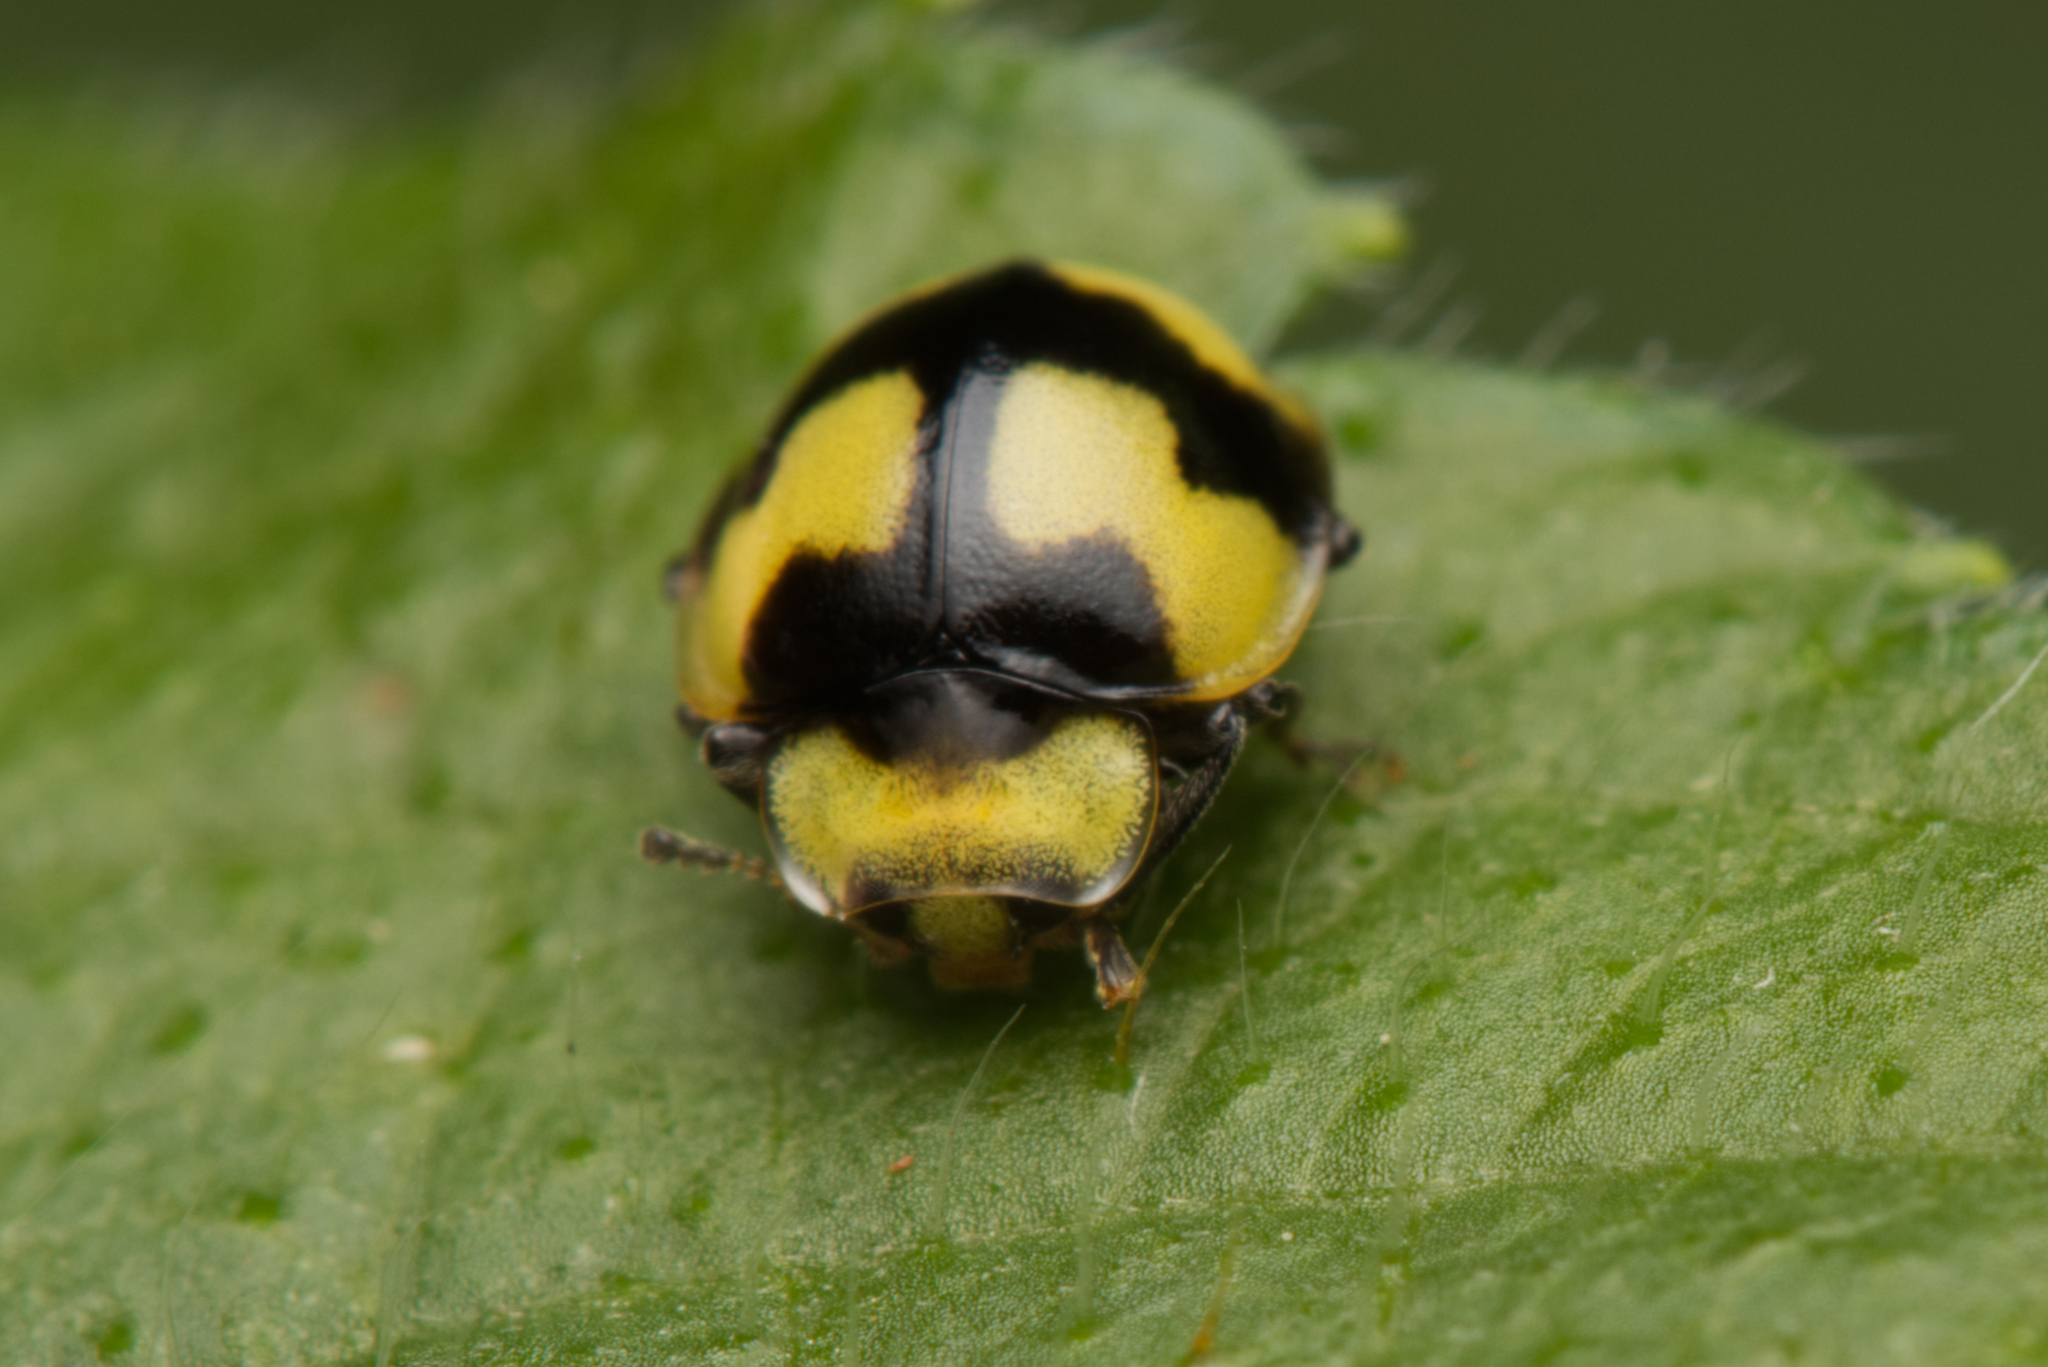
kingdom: Animalia
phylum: Arthropoda
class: Insecta
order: Coleoptera
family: Coccinellidae
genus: Illeis
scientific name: Illeis galbula
